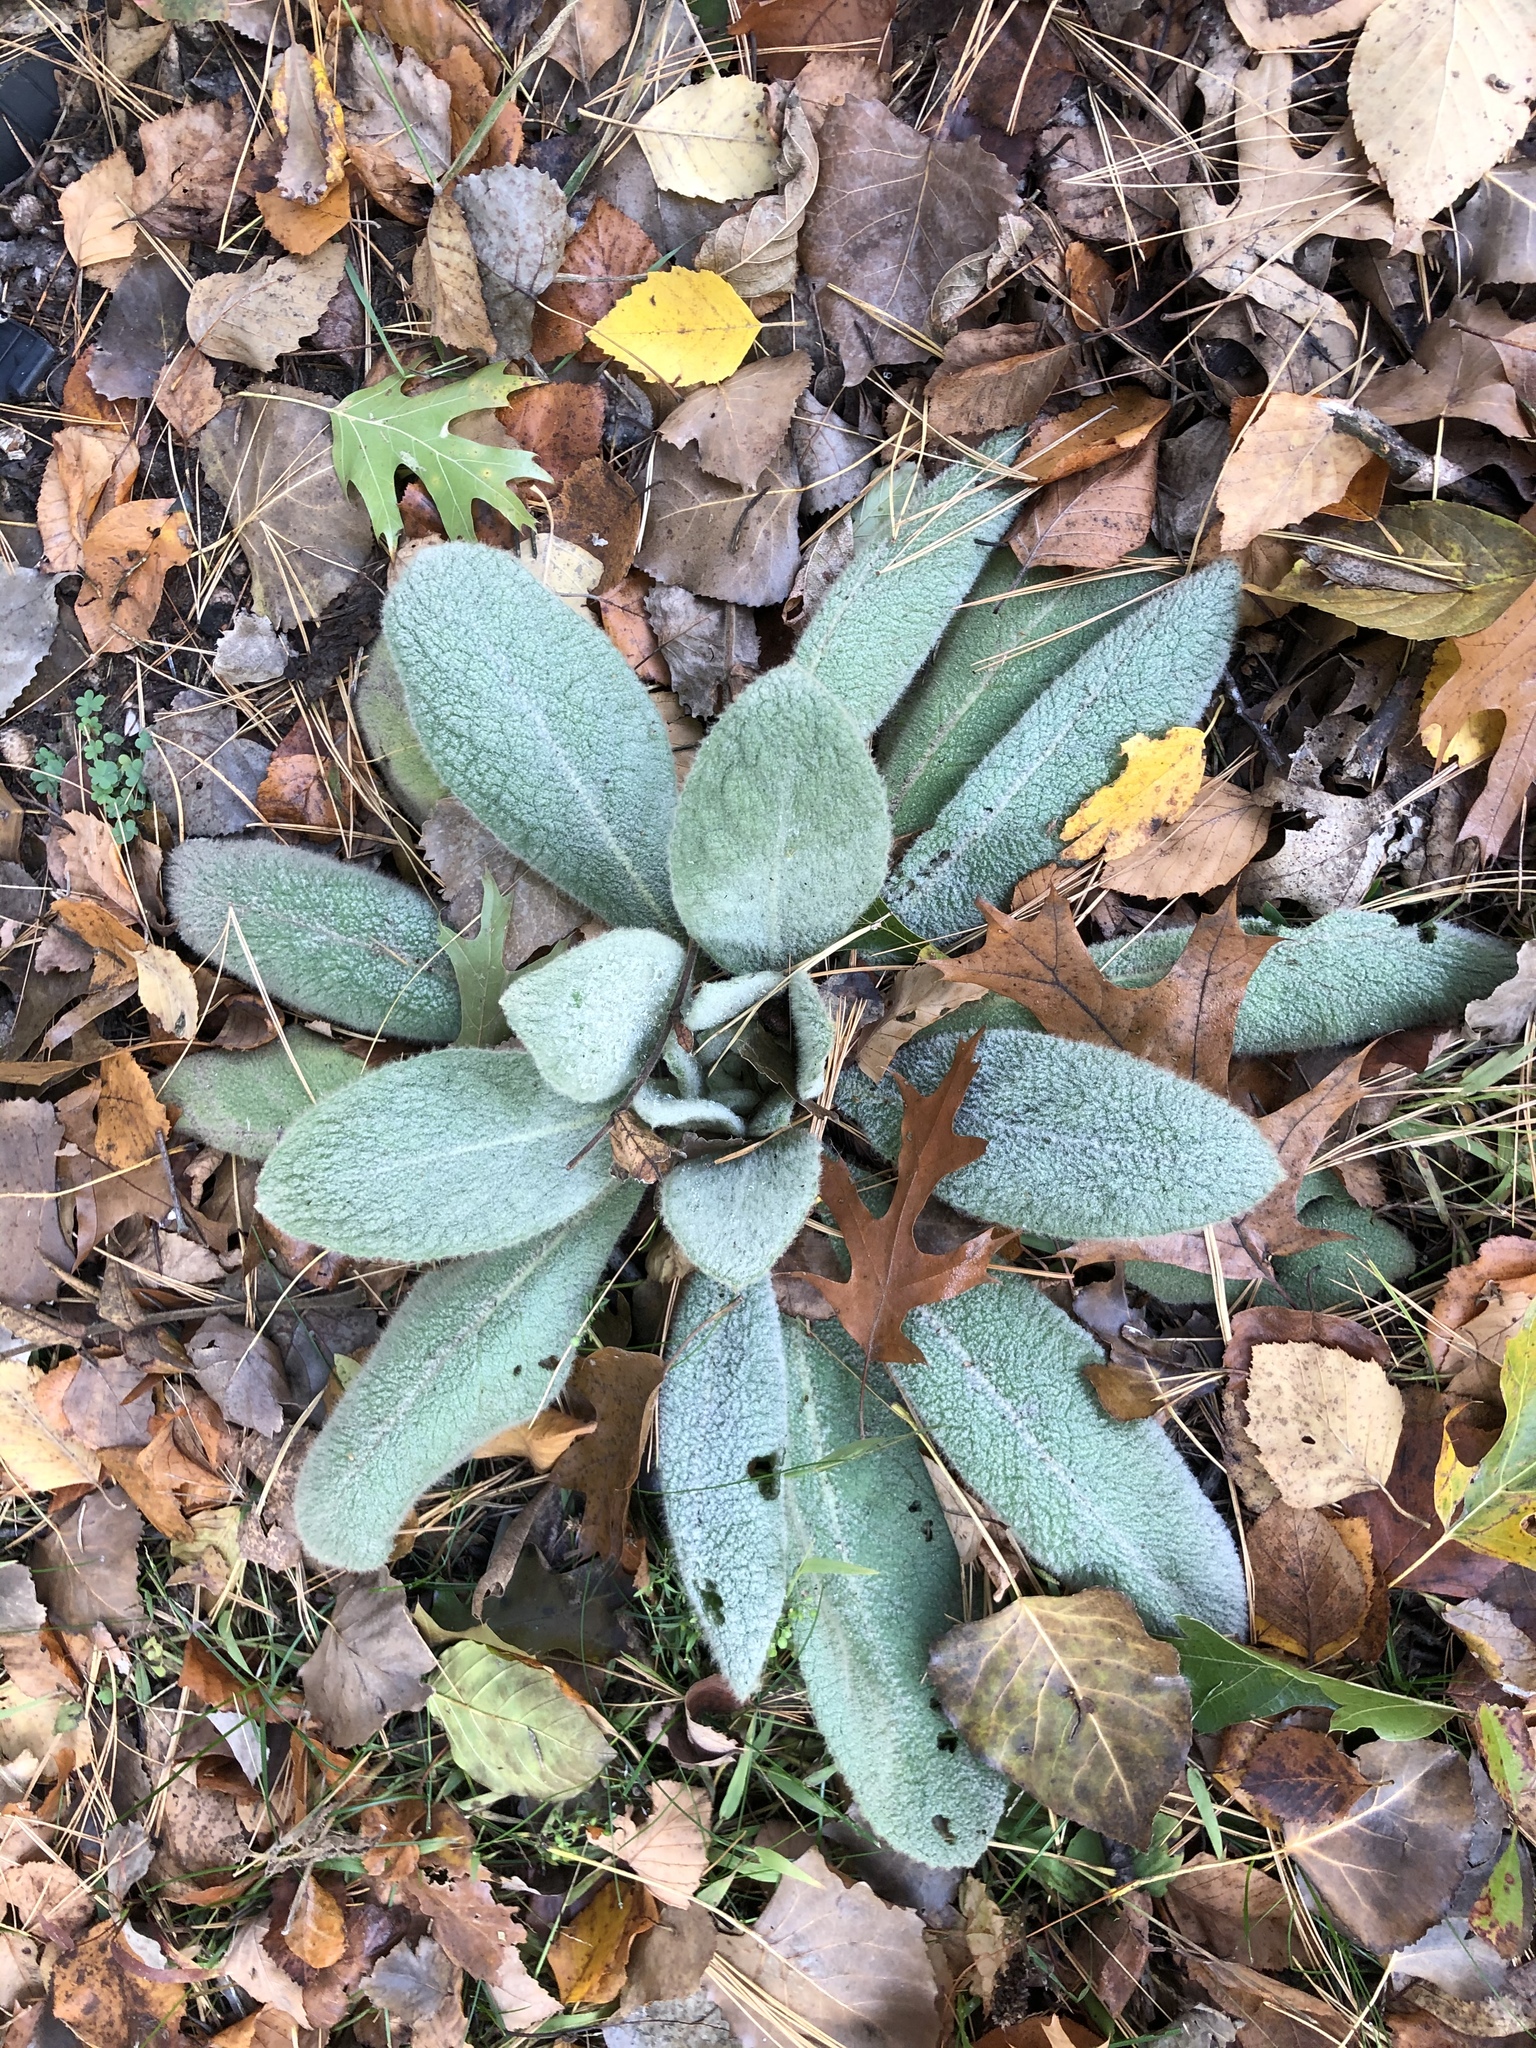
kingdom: Plantae
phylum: Tracheophyta
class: Magnoliopsida
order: Lamiales
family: Scrophulariaceae
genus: Verbascum
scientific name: Verbascum thapsus
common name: Common mullein
